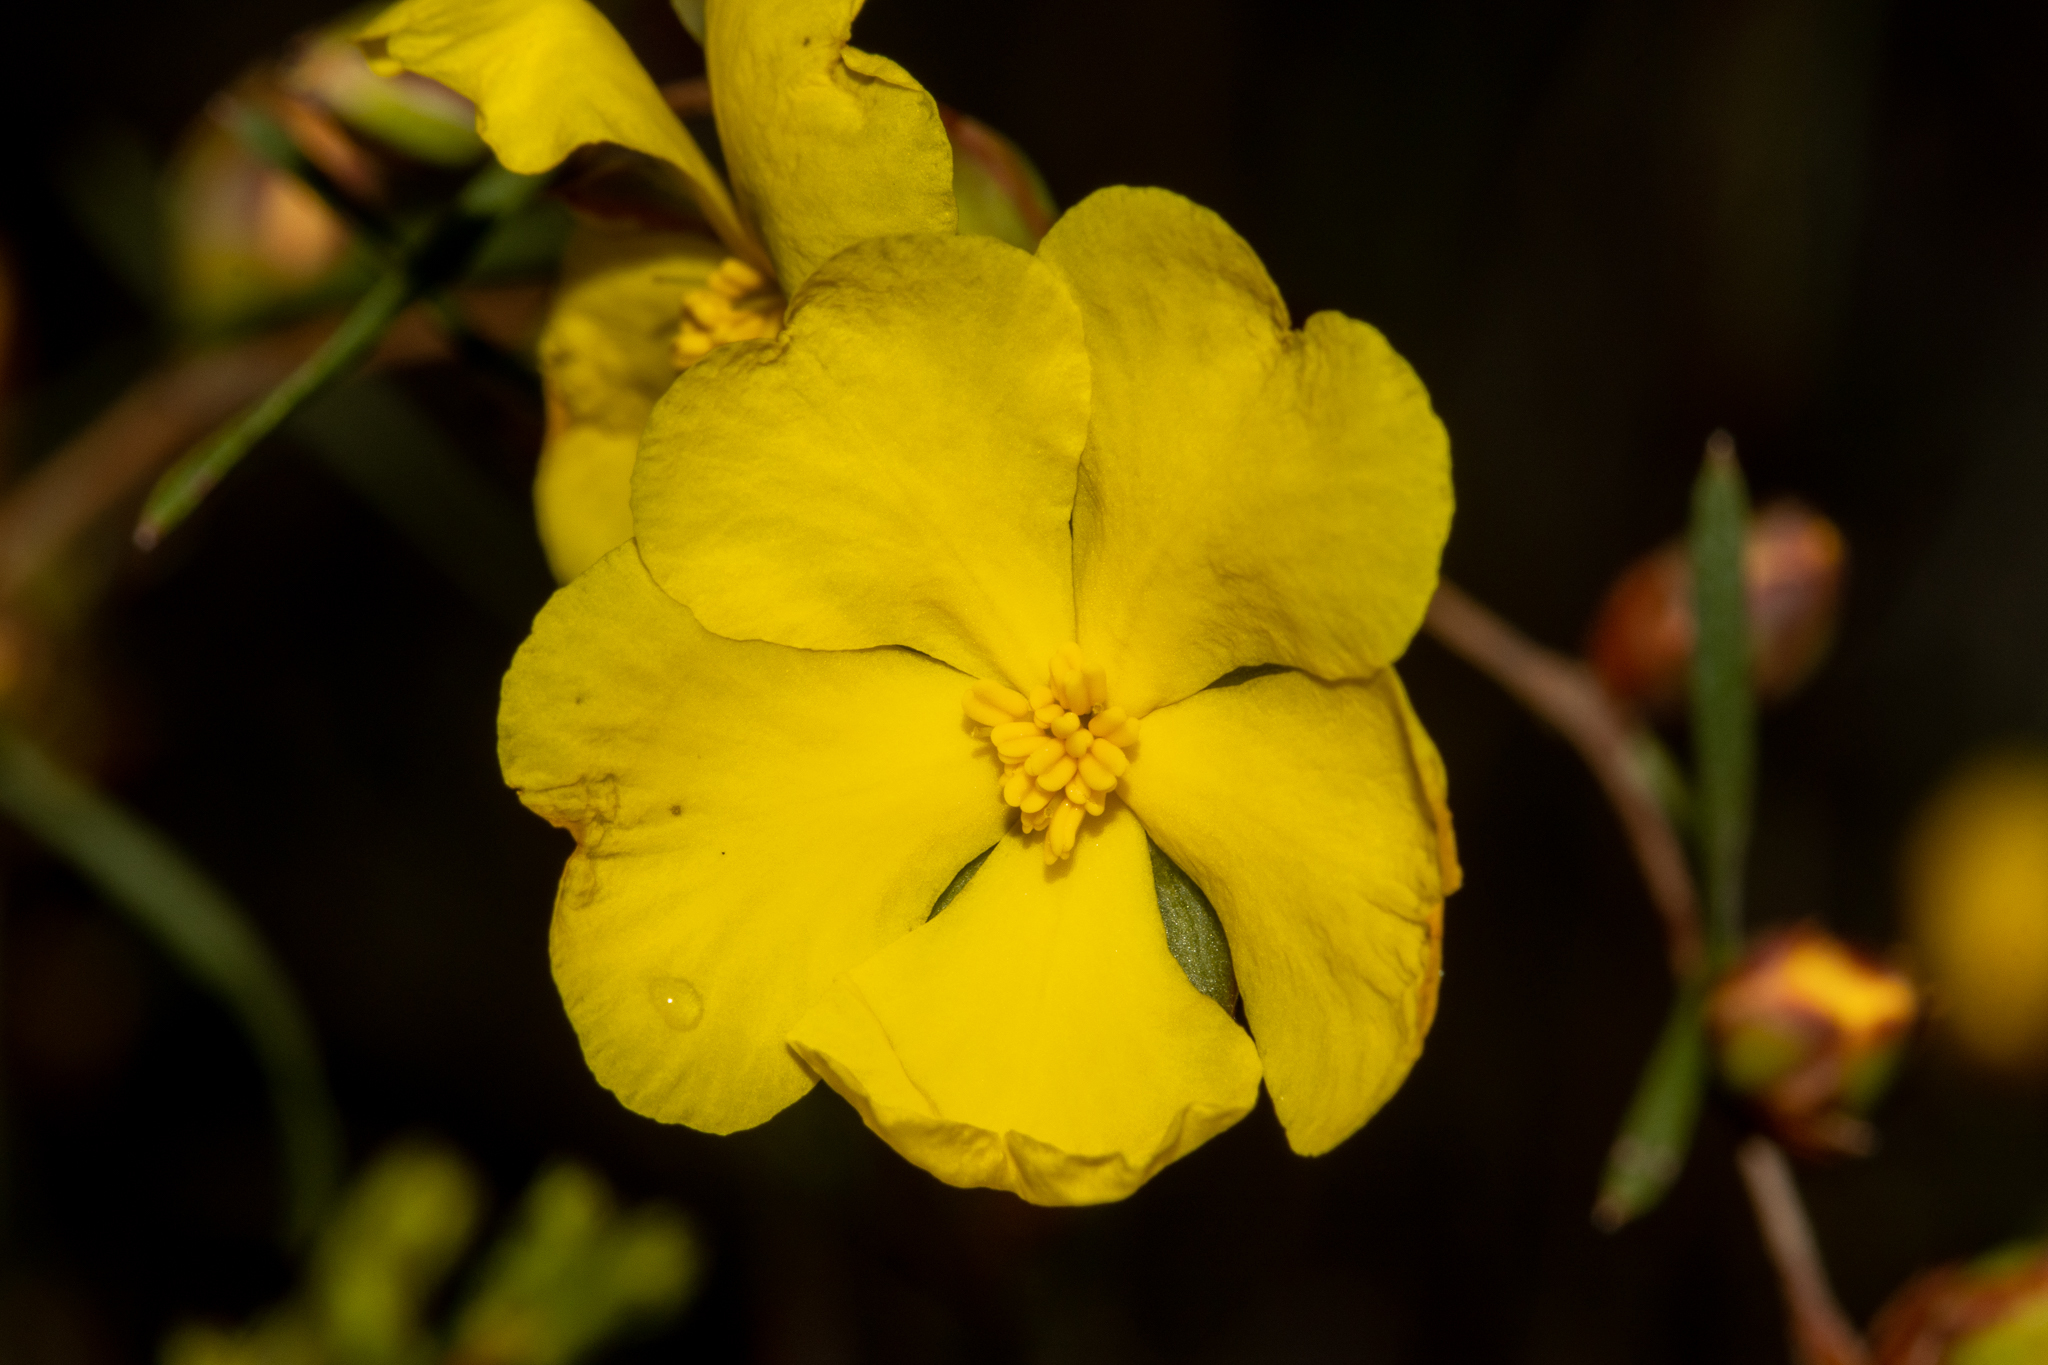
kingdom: Plantae
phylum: Tracheophyta
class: Magnoliopsida
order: Dilleniales
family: Dilleniaceae
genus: Hibbertia
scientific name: Hibbertia virgata
